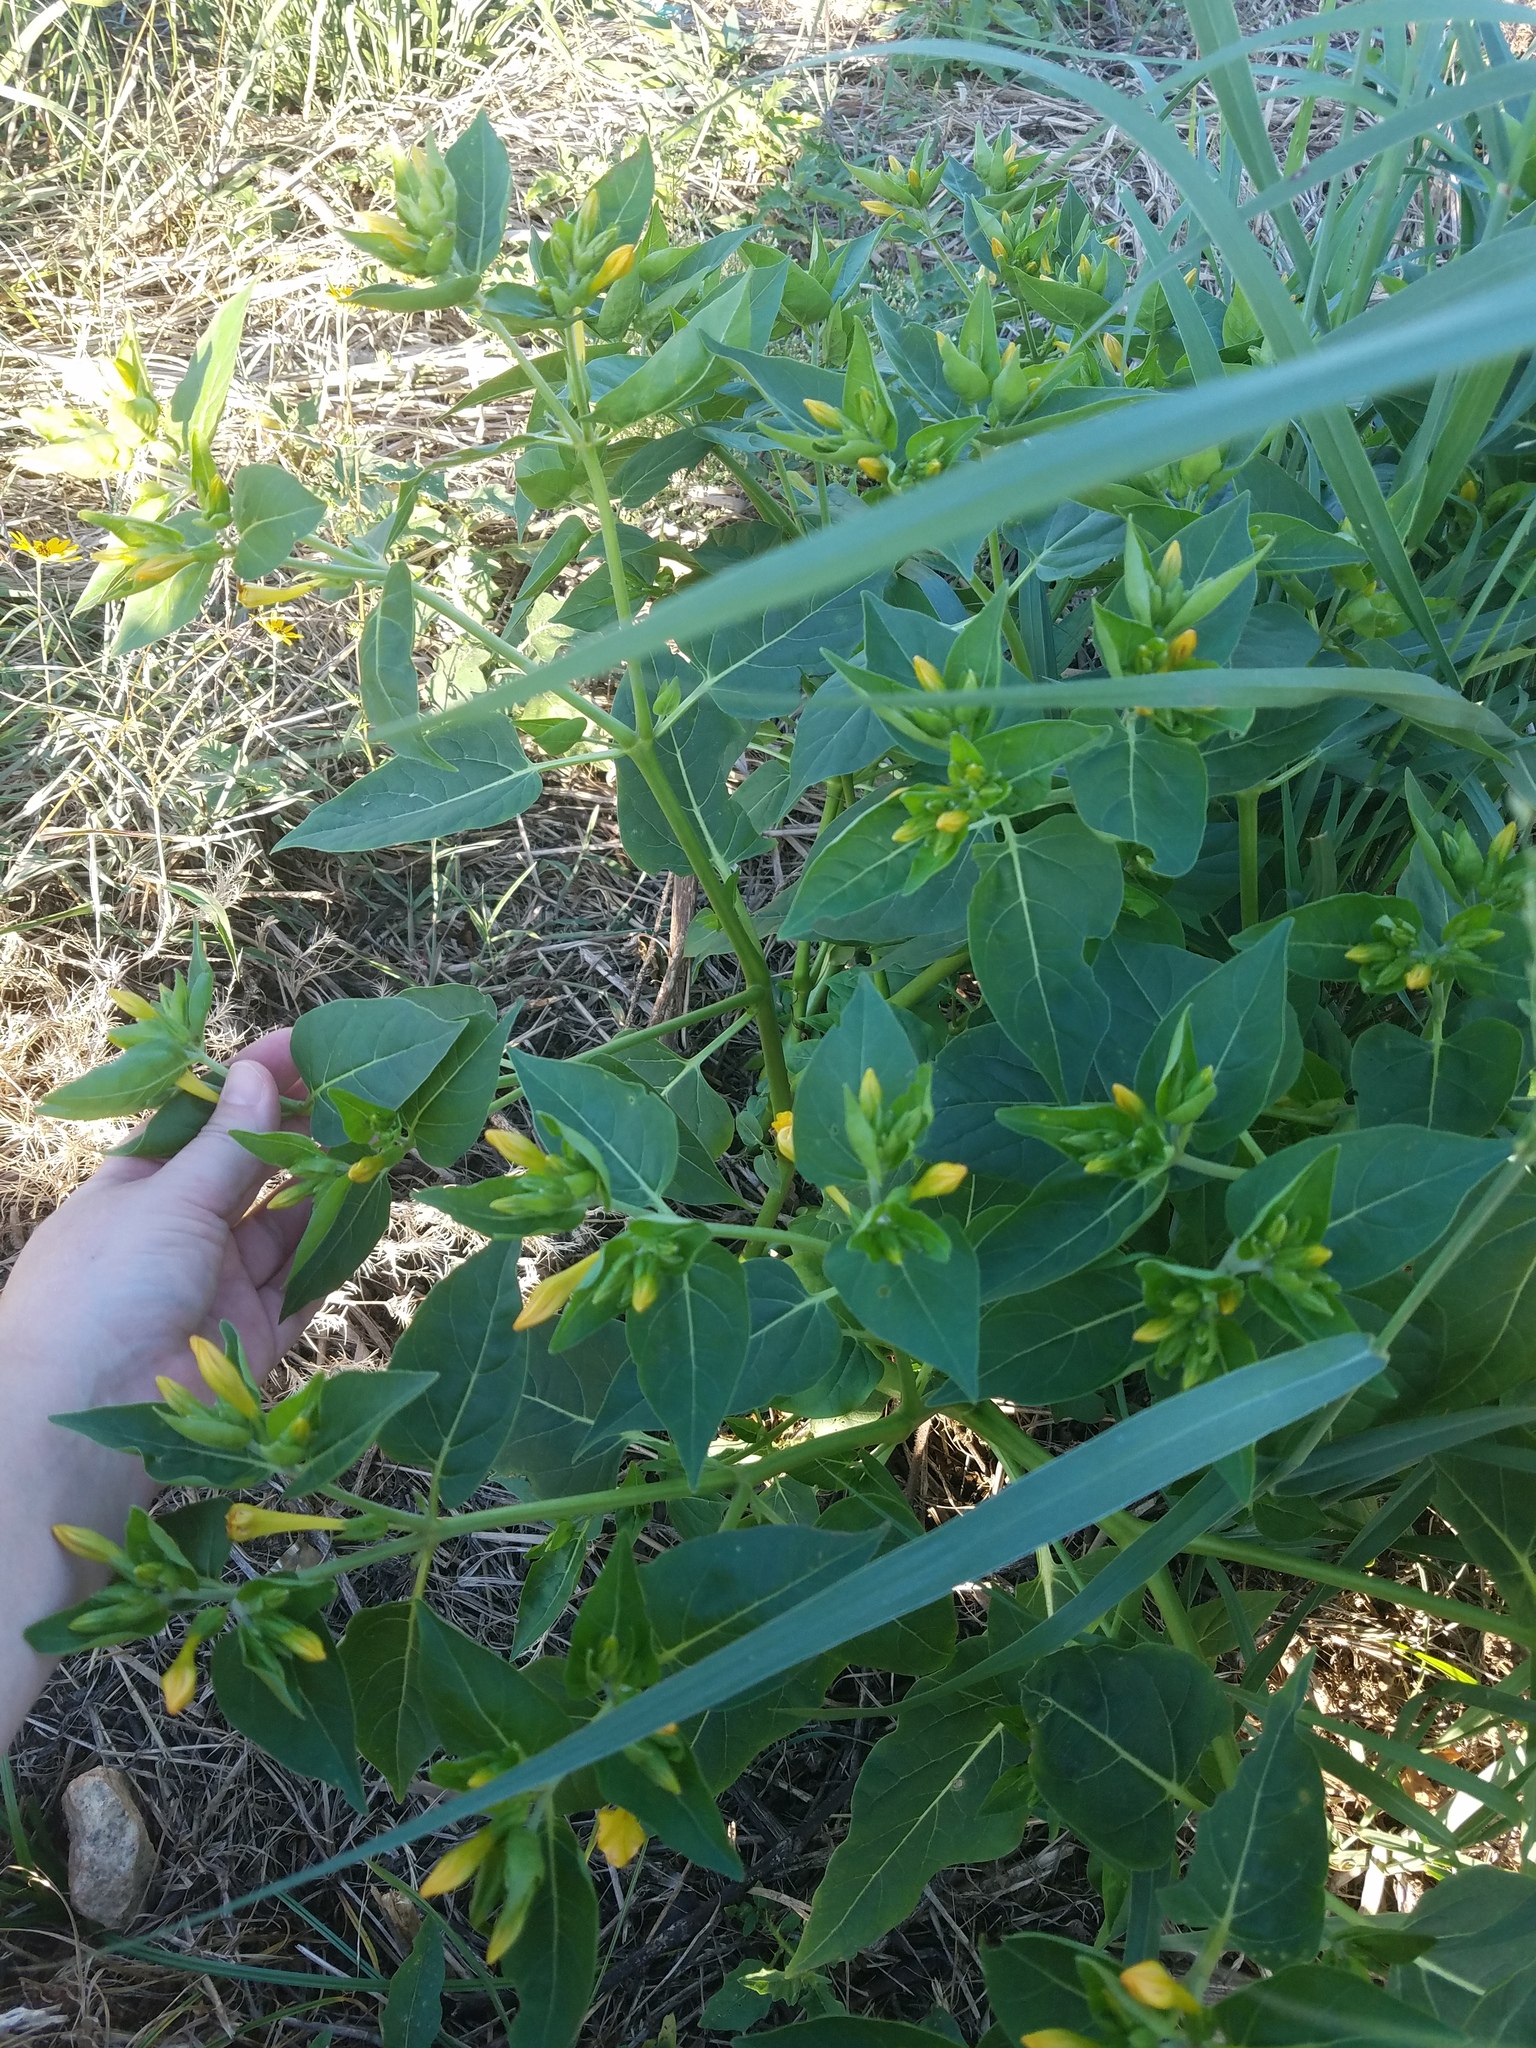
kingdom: Plantae
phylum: Tracheophyta
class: Magnoliopsida
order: Caryophyllales
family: Nyctaginaceae
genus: Mirabilis
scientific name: Mirabilis jalapa
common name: Marvel-of-peru
